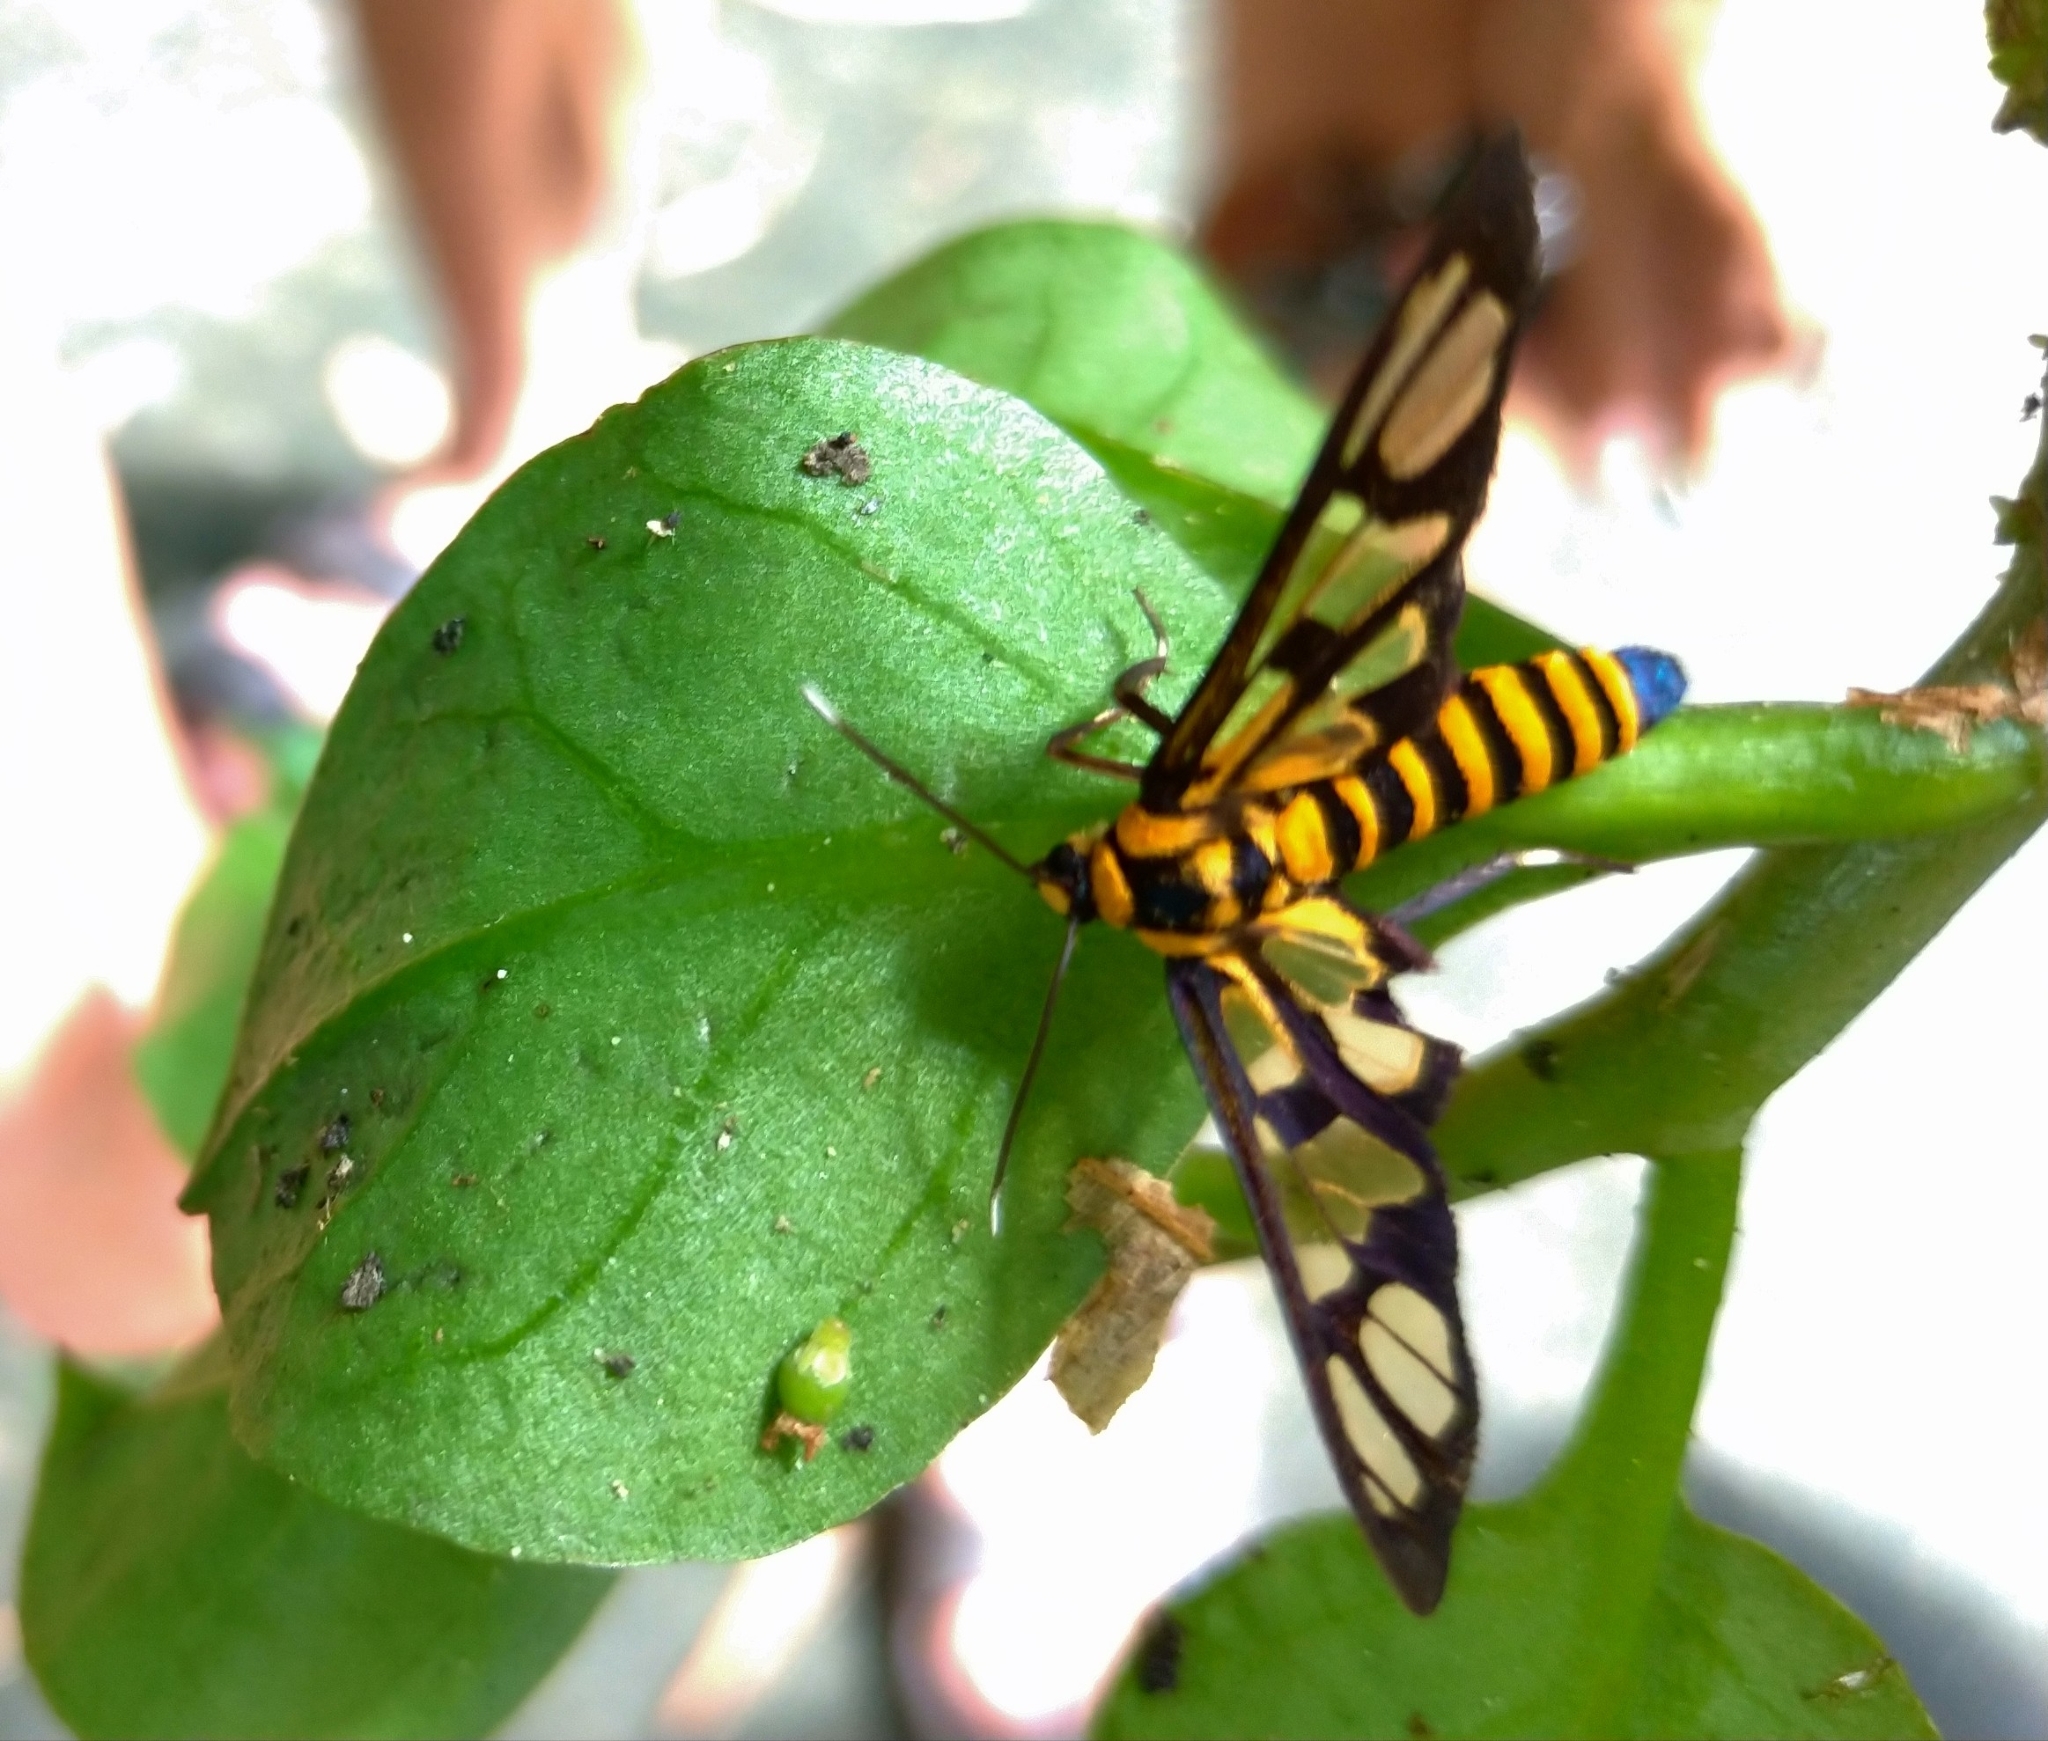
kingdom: Animalia
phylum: Arthropoda
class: Insecta
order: Lepidoptera
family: Erebidae
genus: Amata
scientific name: Amata persimilis
